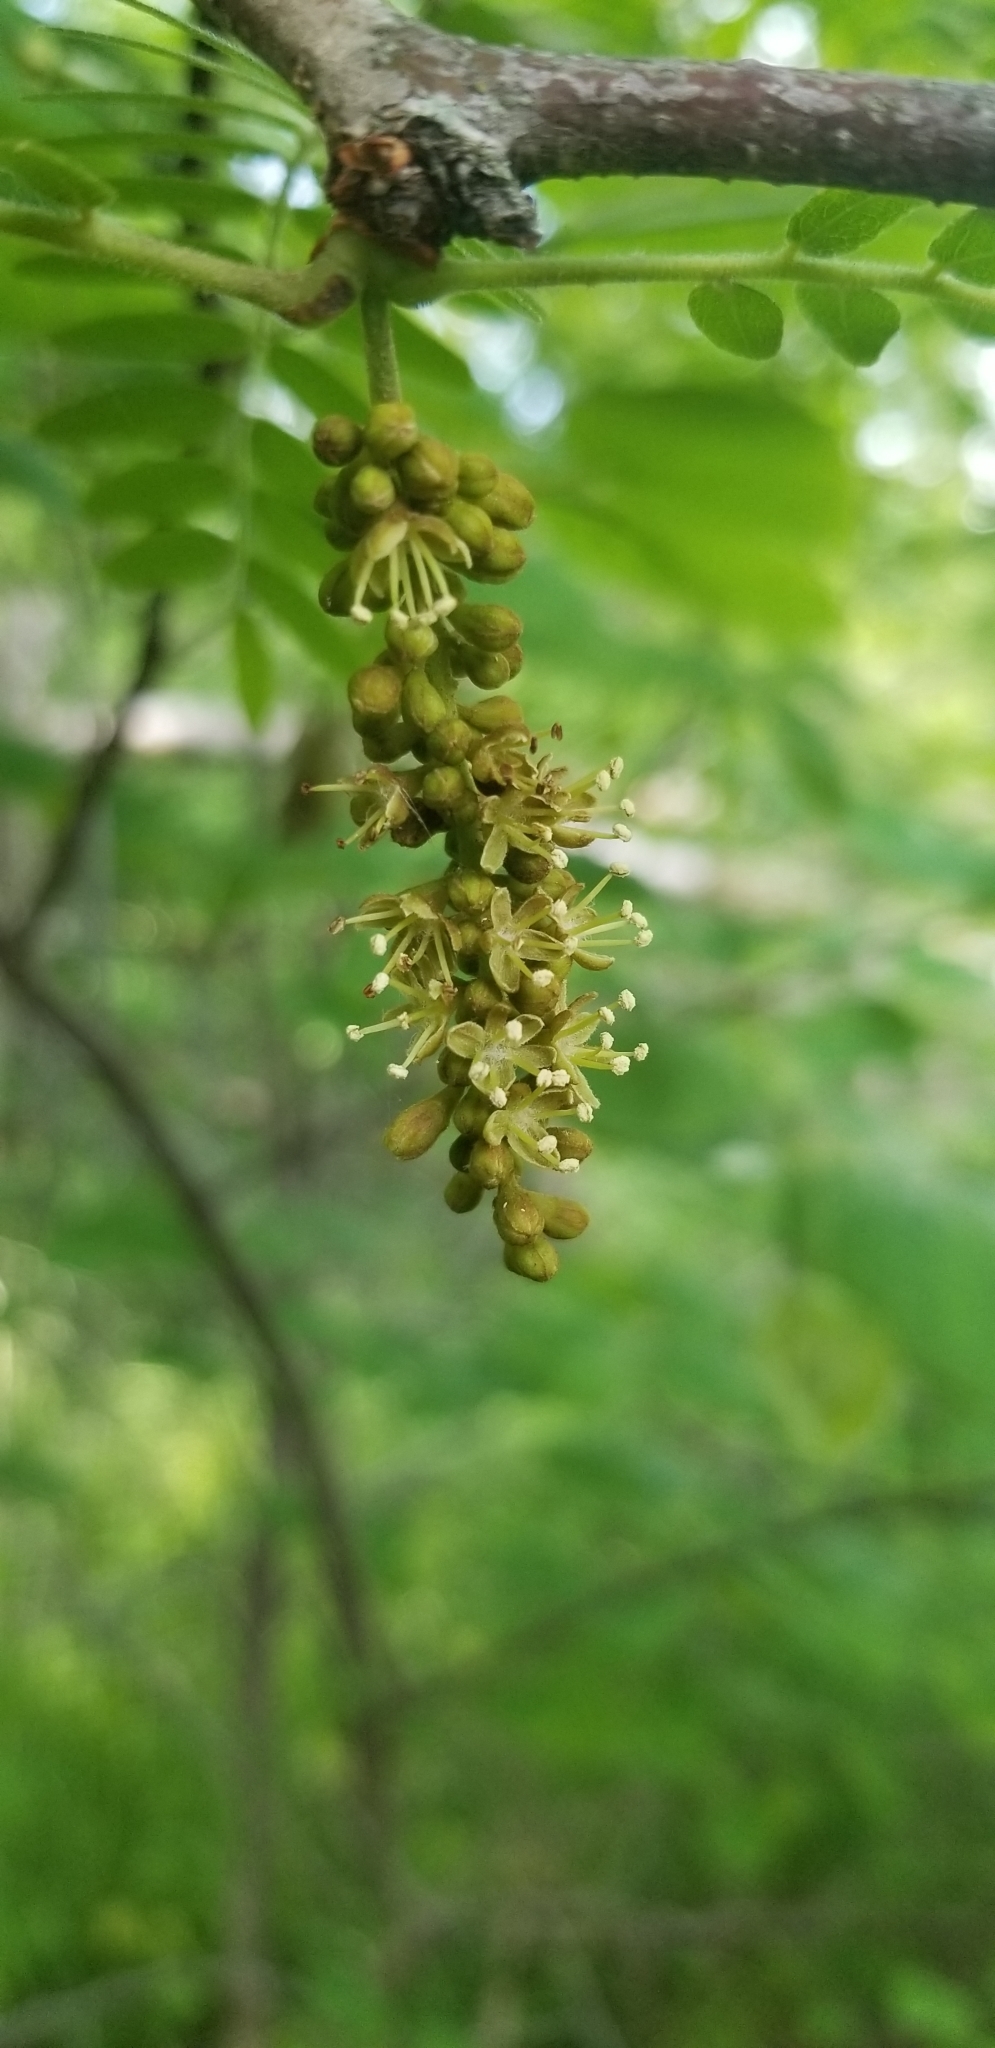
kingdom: Plantae
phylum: Tracheophyta
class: Magnoliopsida
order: Fabales
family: Fabaceae
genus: Gleditsia
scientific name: Gleditsia triacanthos
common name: Common honeylocust
